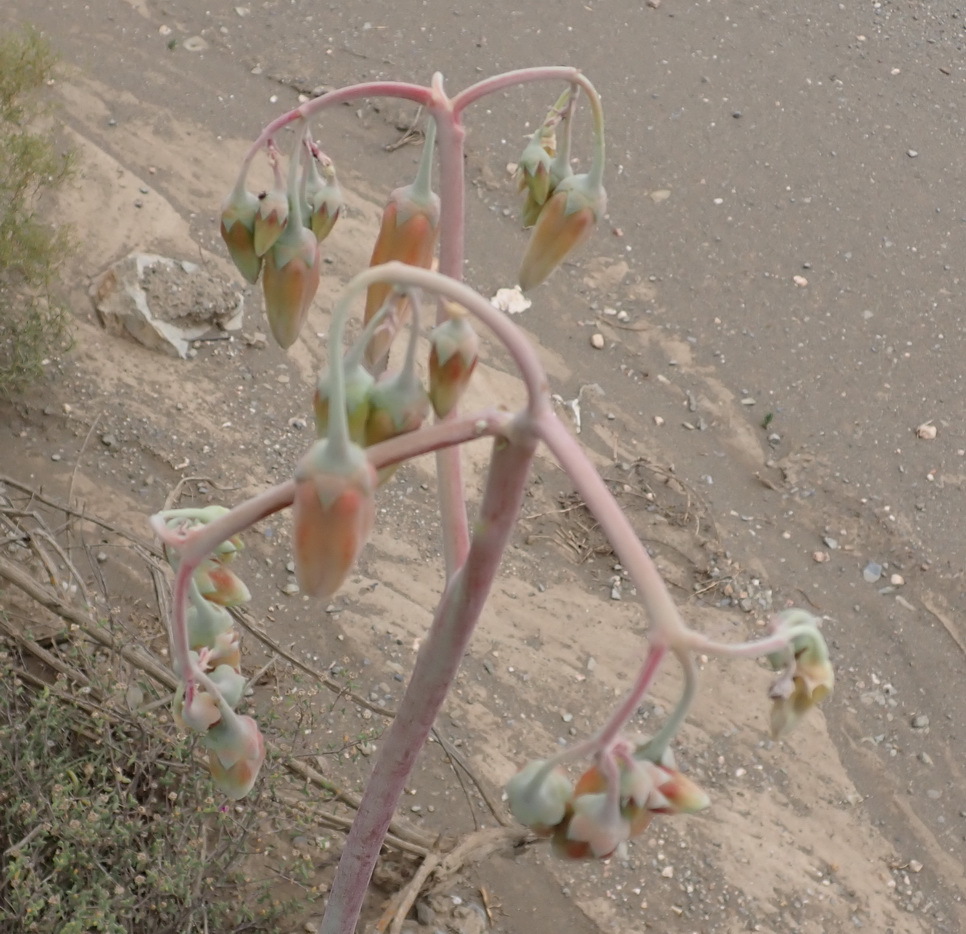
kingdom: Plantae
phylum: Tracheophyta
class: Magnoliopsida
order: Saxifragales
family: Crassulaceae
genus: Cotyledon
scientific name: Cotyledon orbiculata
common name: Pig's ear
